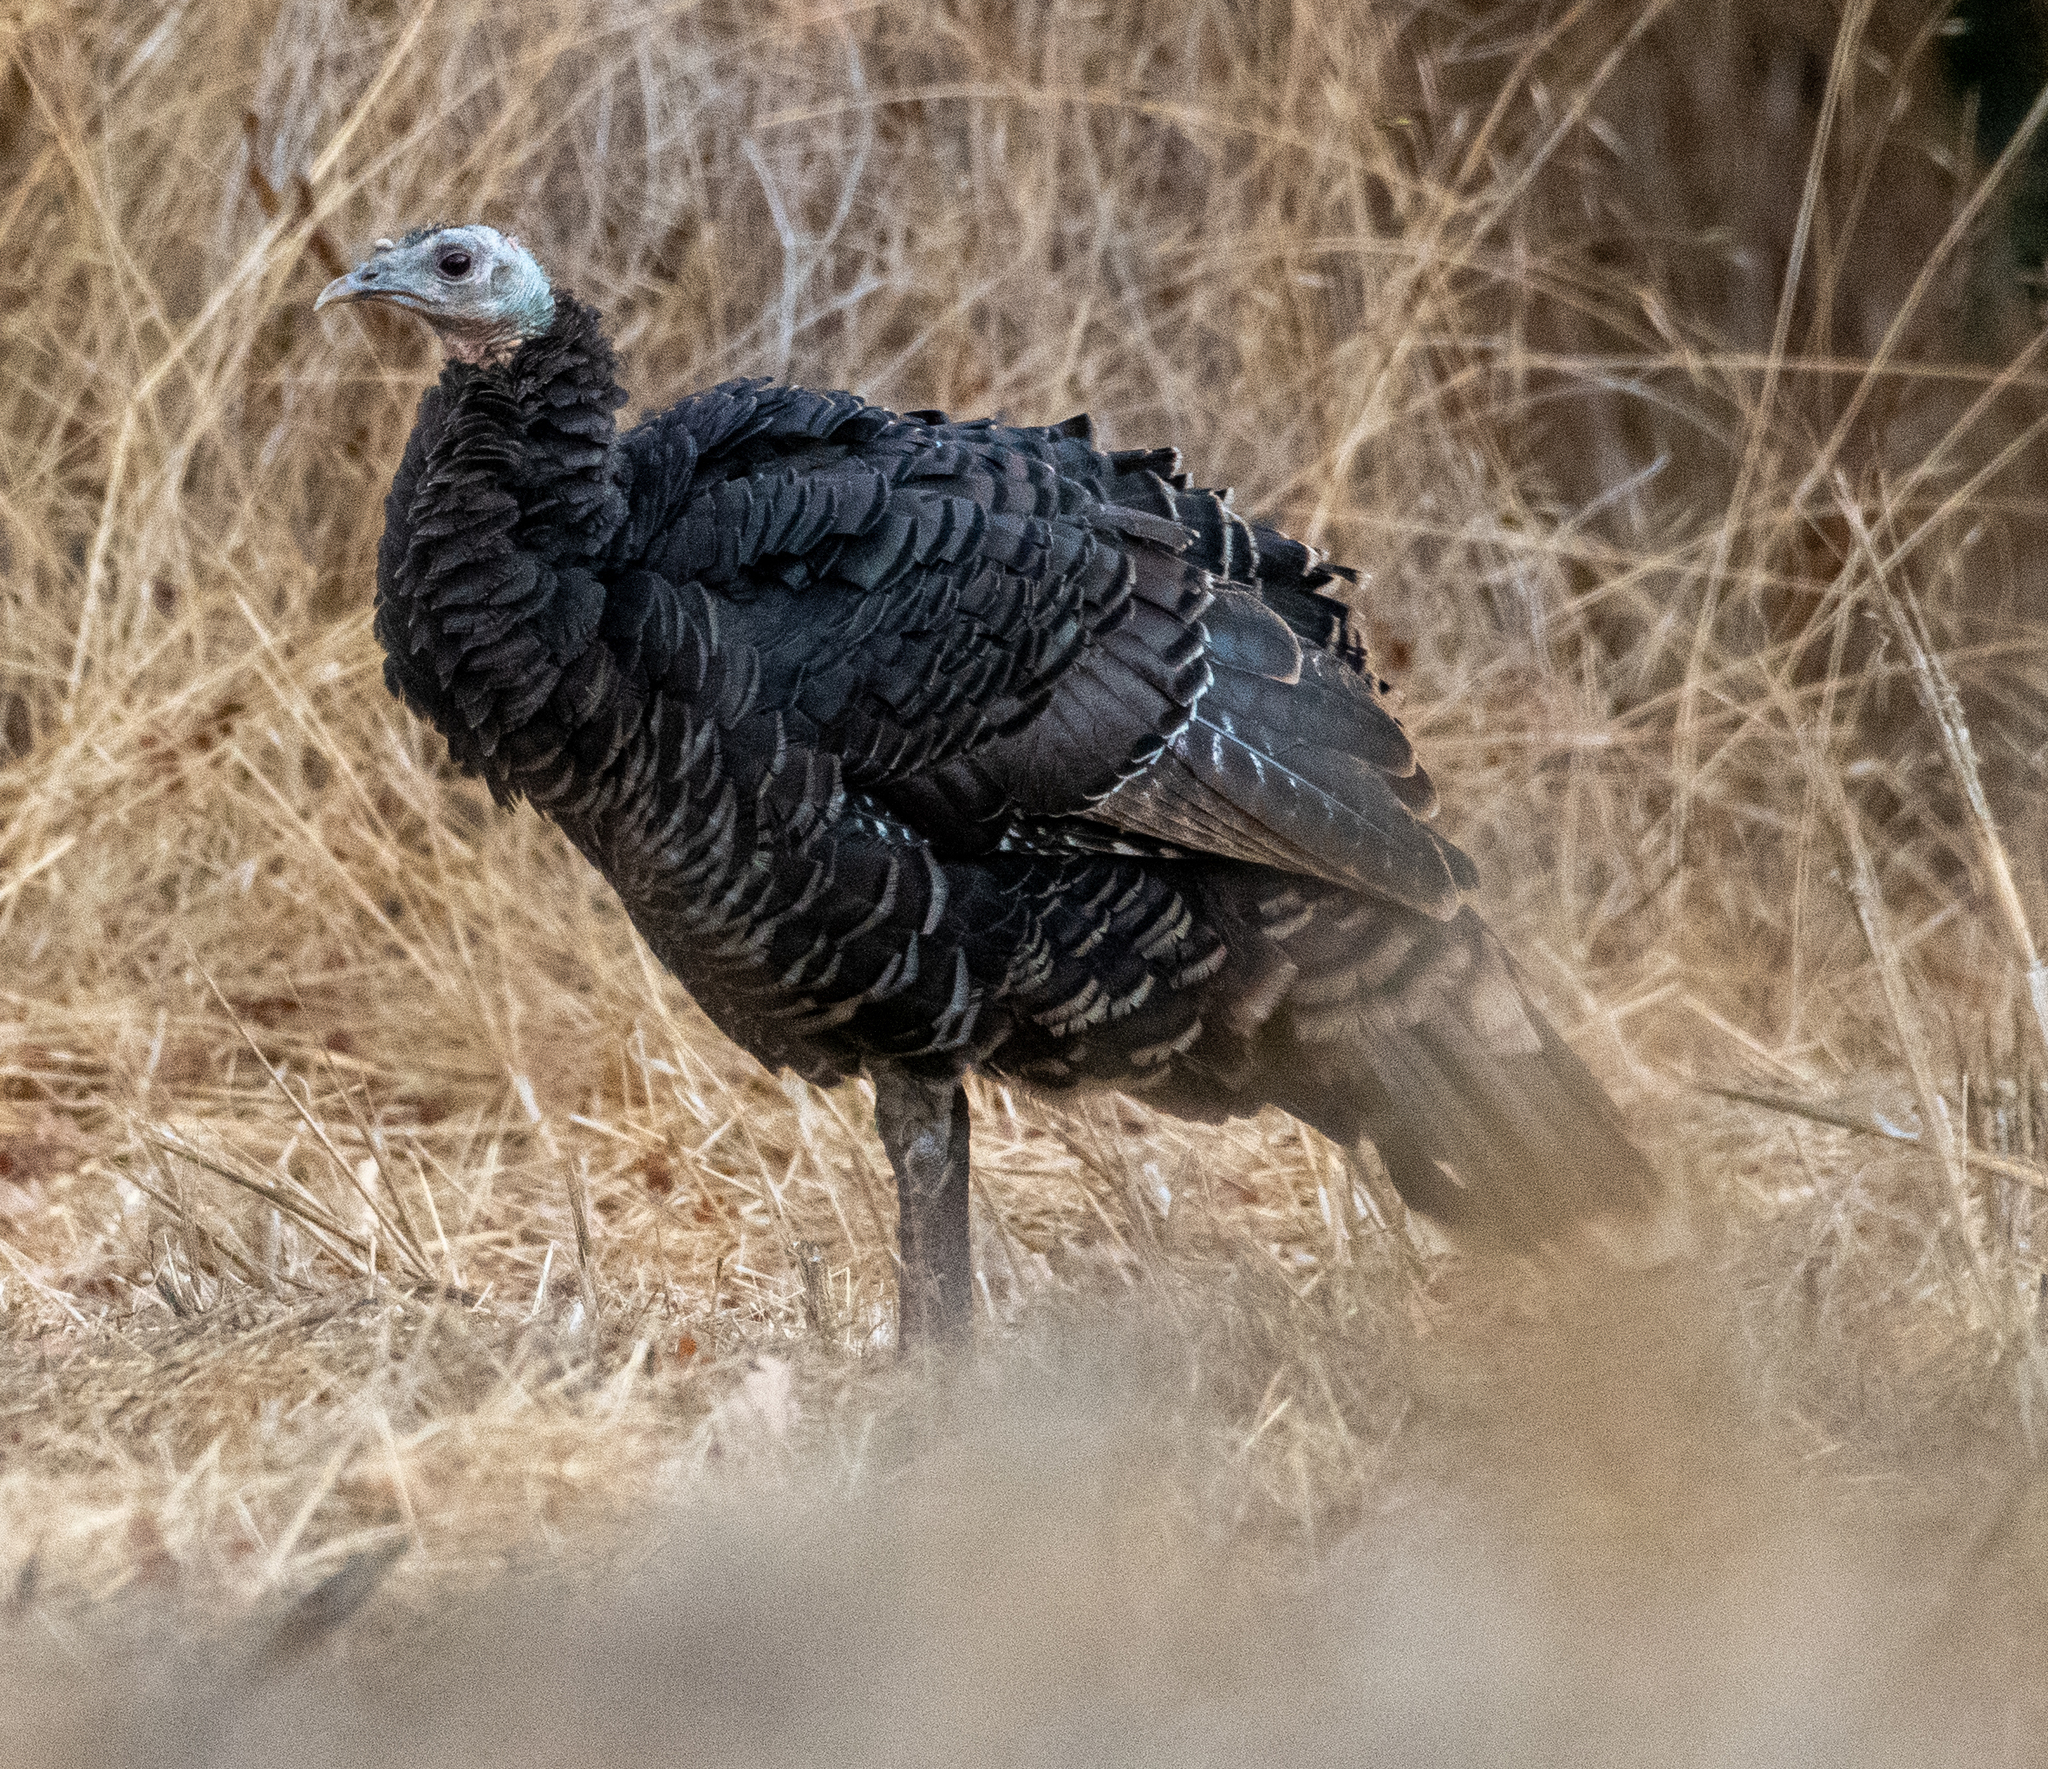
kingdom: Animalia
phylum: Chordata
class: Aves
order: Galliformes
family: Phasianidae
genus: Meleagris
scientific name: Meleagris gallopavo
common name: Wild turkey
